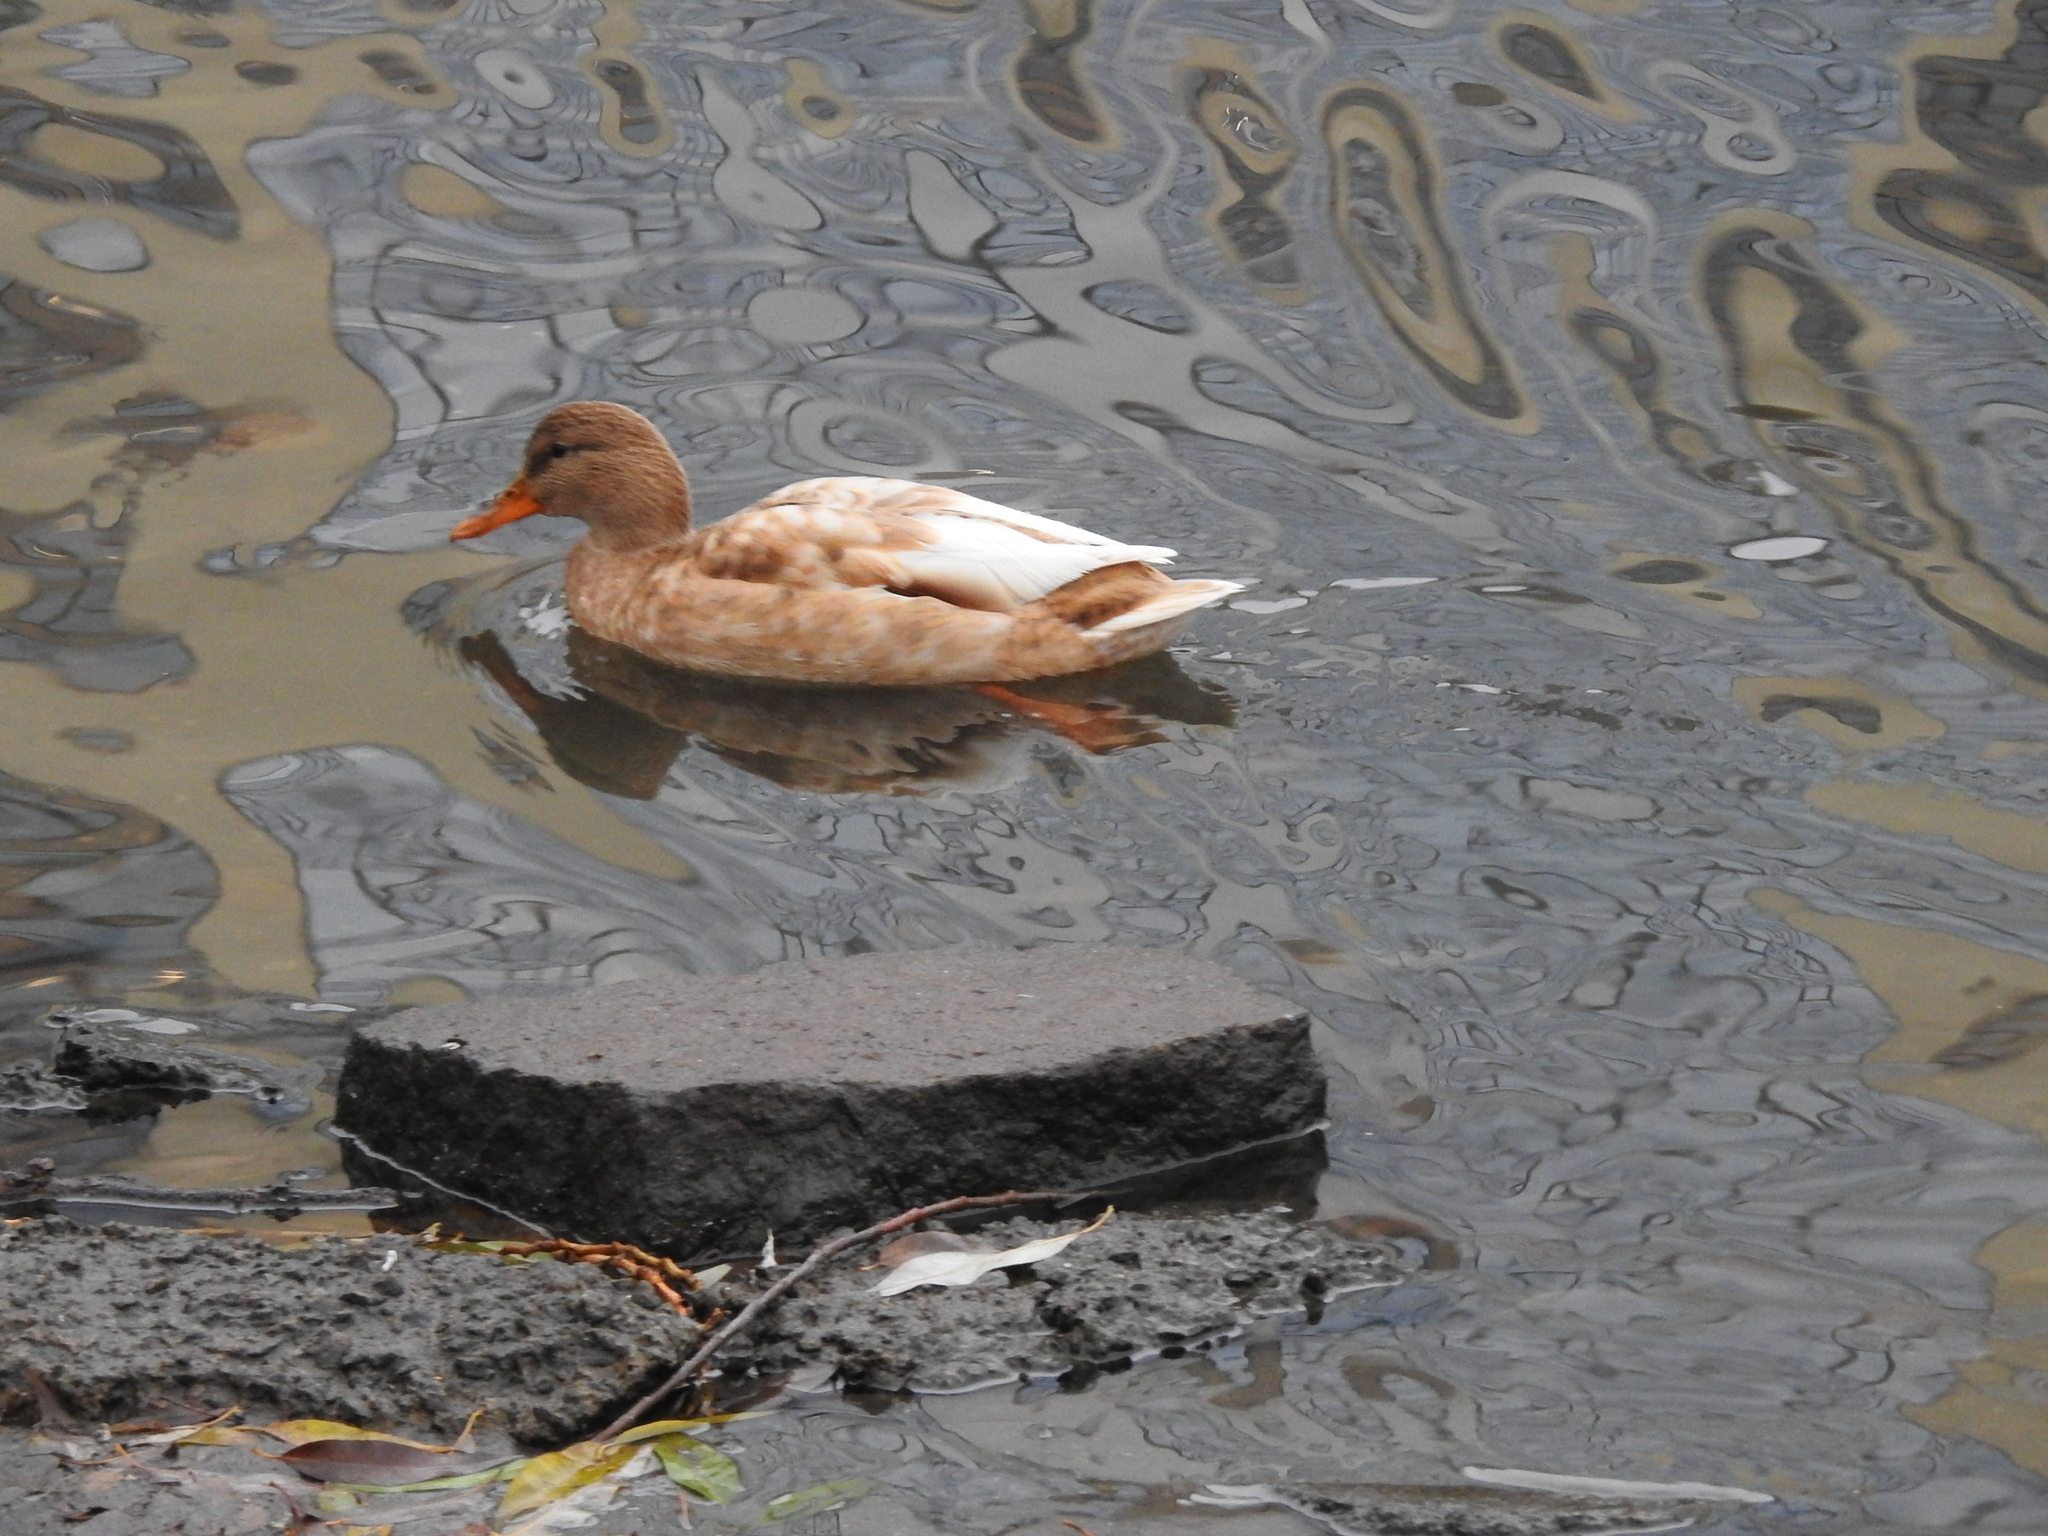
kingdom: Animalia
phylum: Chordata
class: Aves
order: Anseriformes
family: Anatidae
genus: Anas
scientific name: Anas platyrhynchos
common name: Mallard
